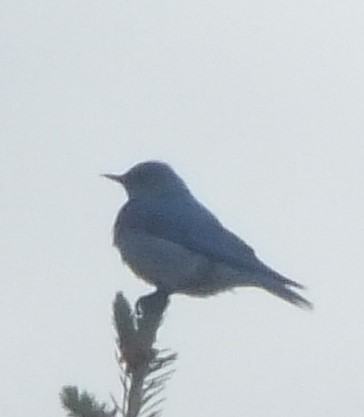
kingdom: Animalia
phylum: Chordata
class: Aves
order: Passeriformes
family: Turdidae
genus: Sialia
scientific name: Sialia currucoides
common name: Mountain bluebird
